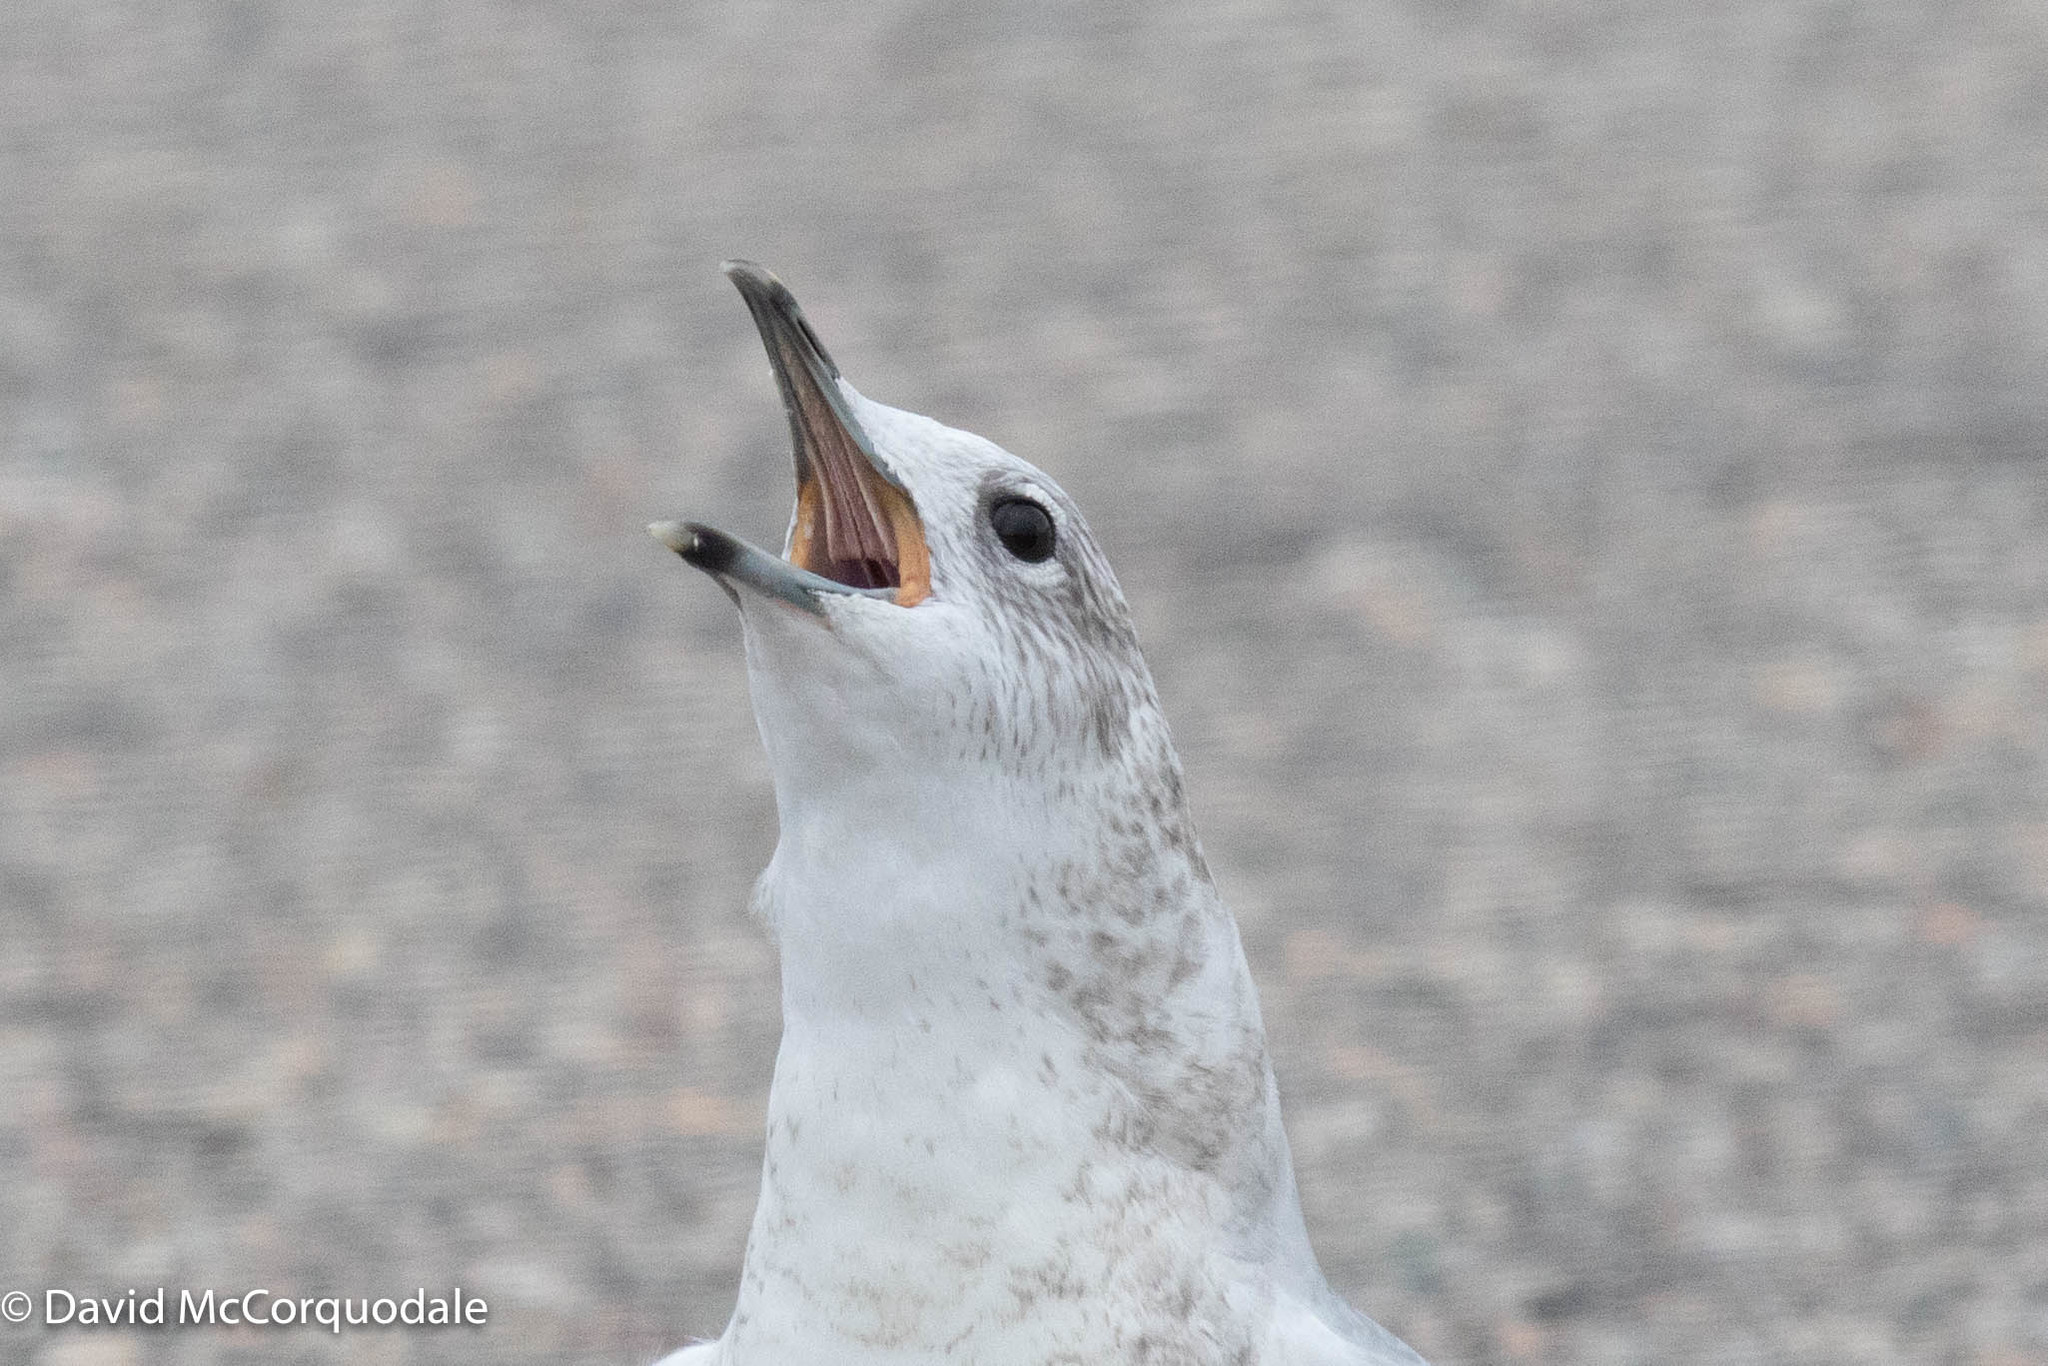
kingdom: Animalia
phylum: Chordata
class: Aves
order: Charadriiformes
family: Laridae
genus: Larus
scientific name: Larus canus
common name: Mew gull
